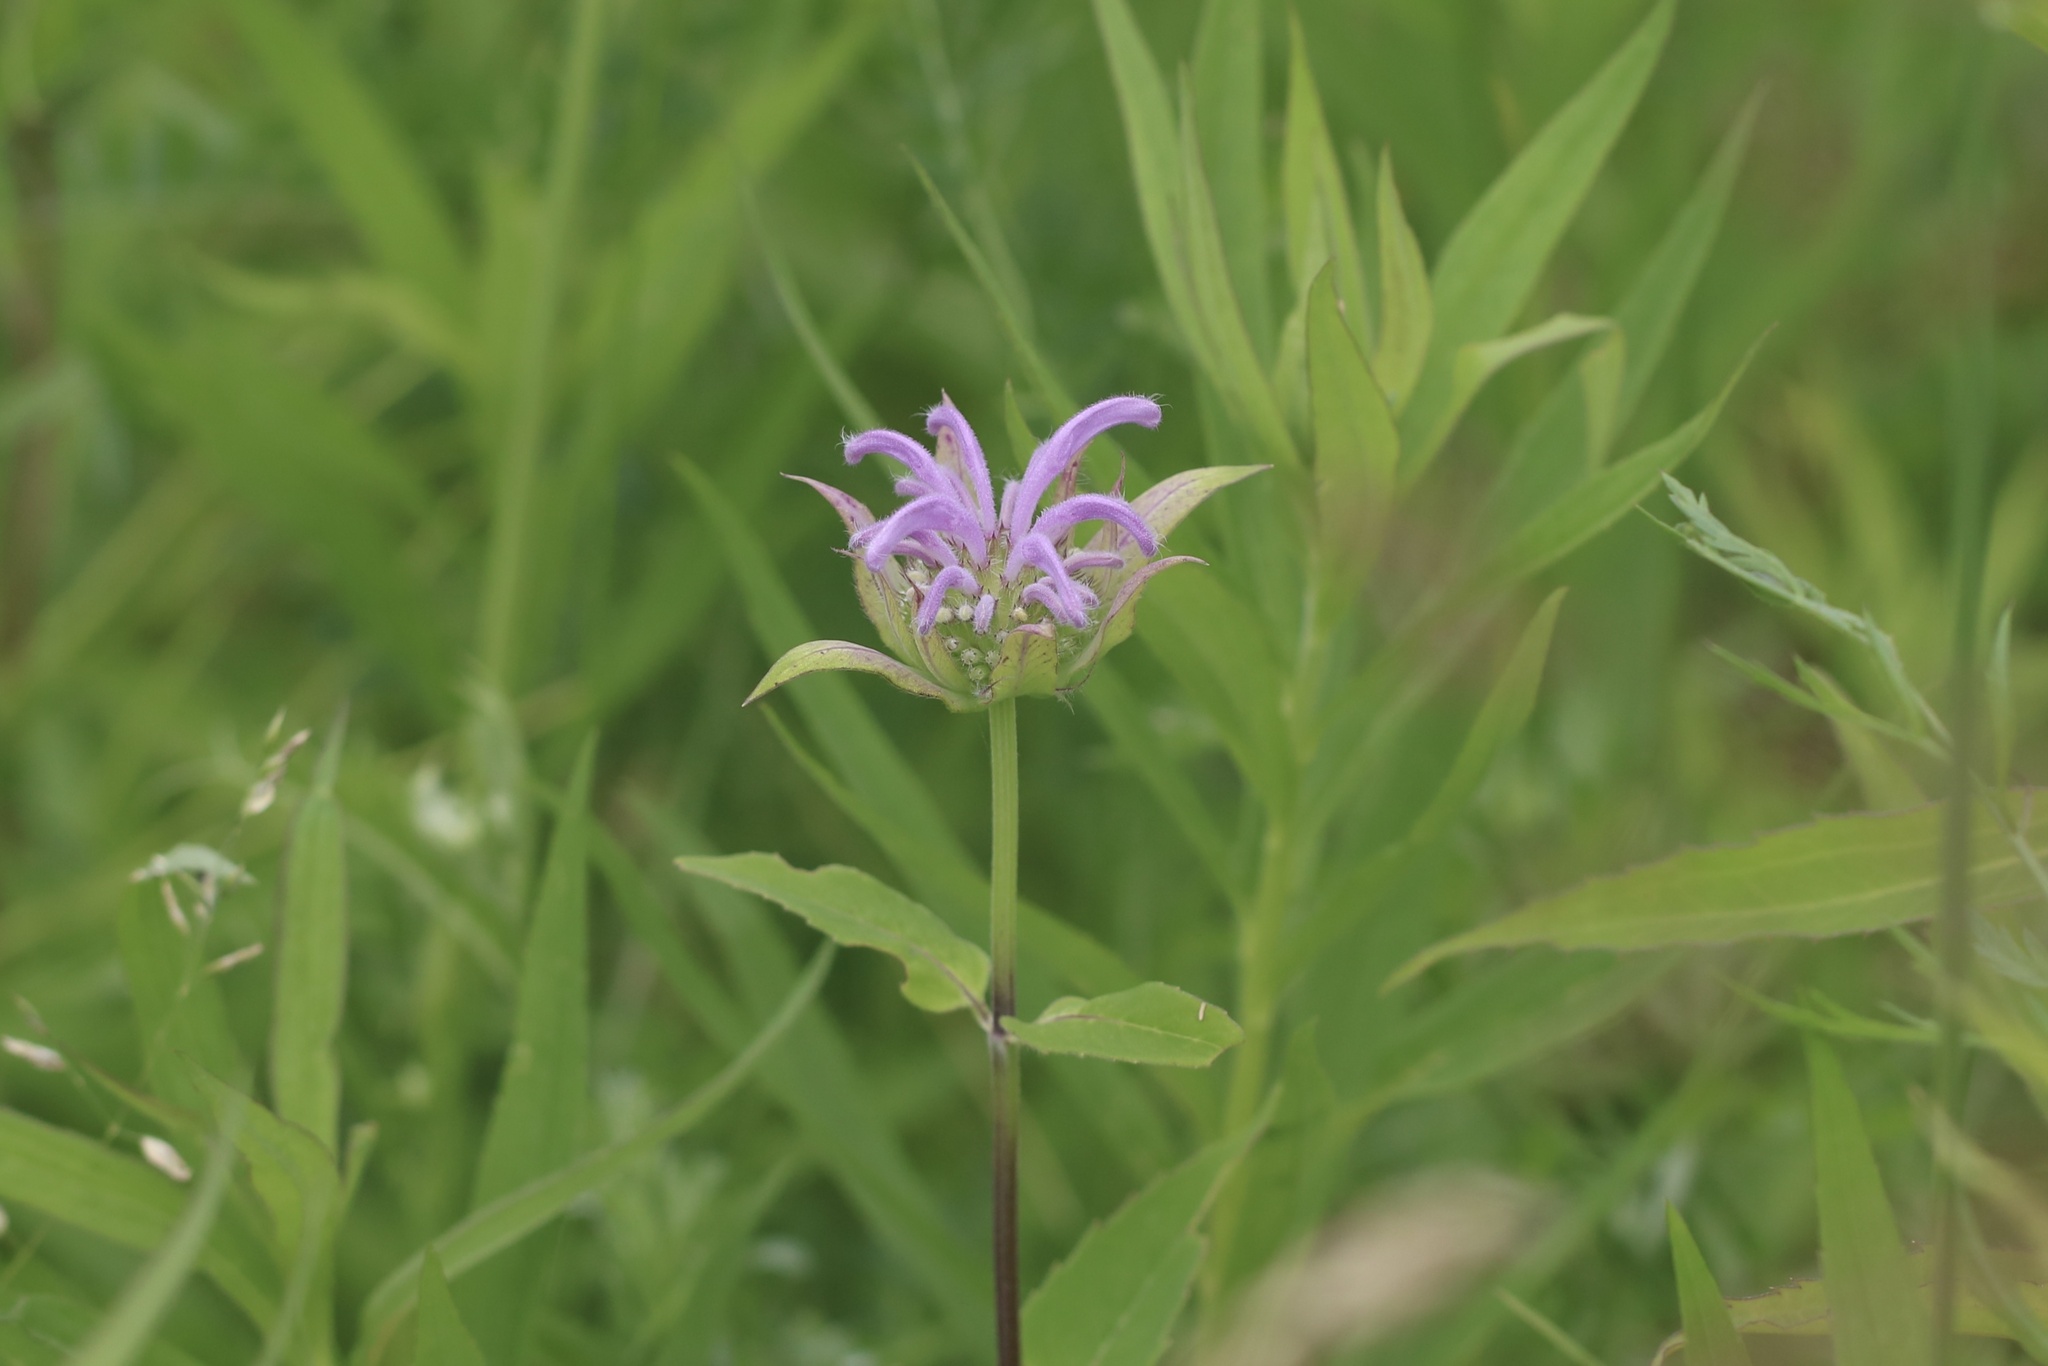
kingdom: Plantae
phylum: Tracheophyta
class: Magnoliopsida
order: Lamiales
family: Lamiaceae
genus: Monarda
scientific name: Monarda fistulosa
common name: Purple beebalm
